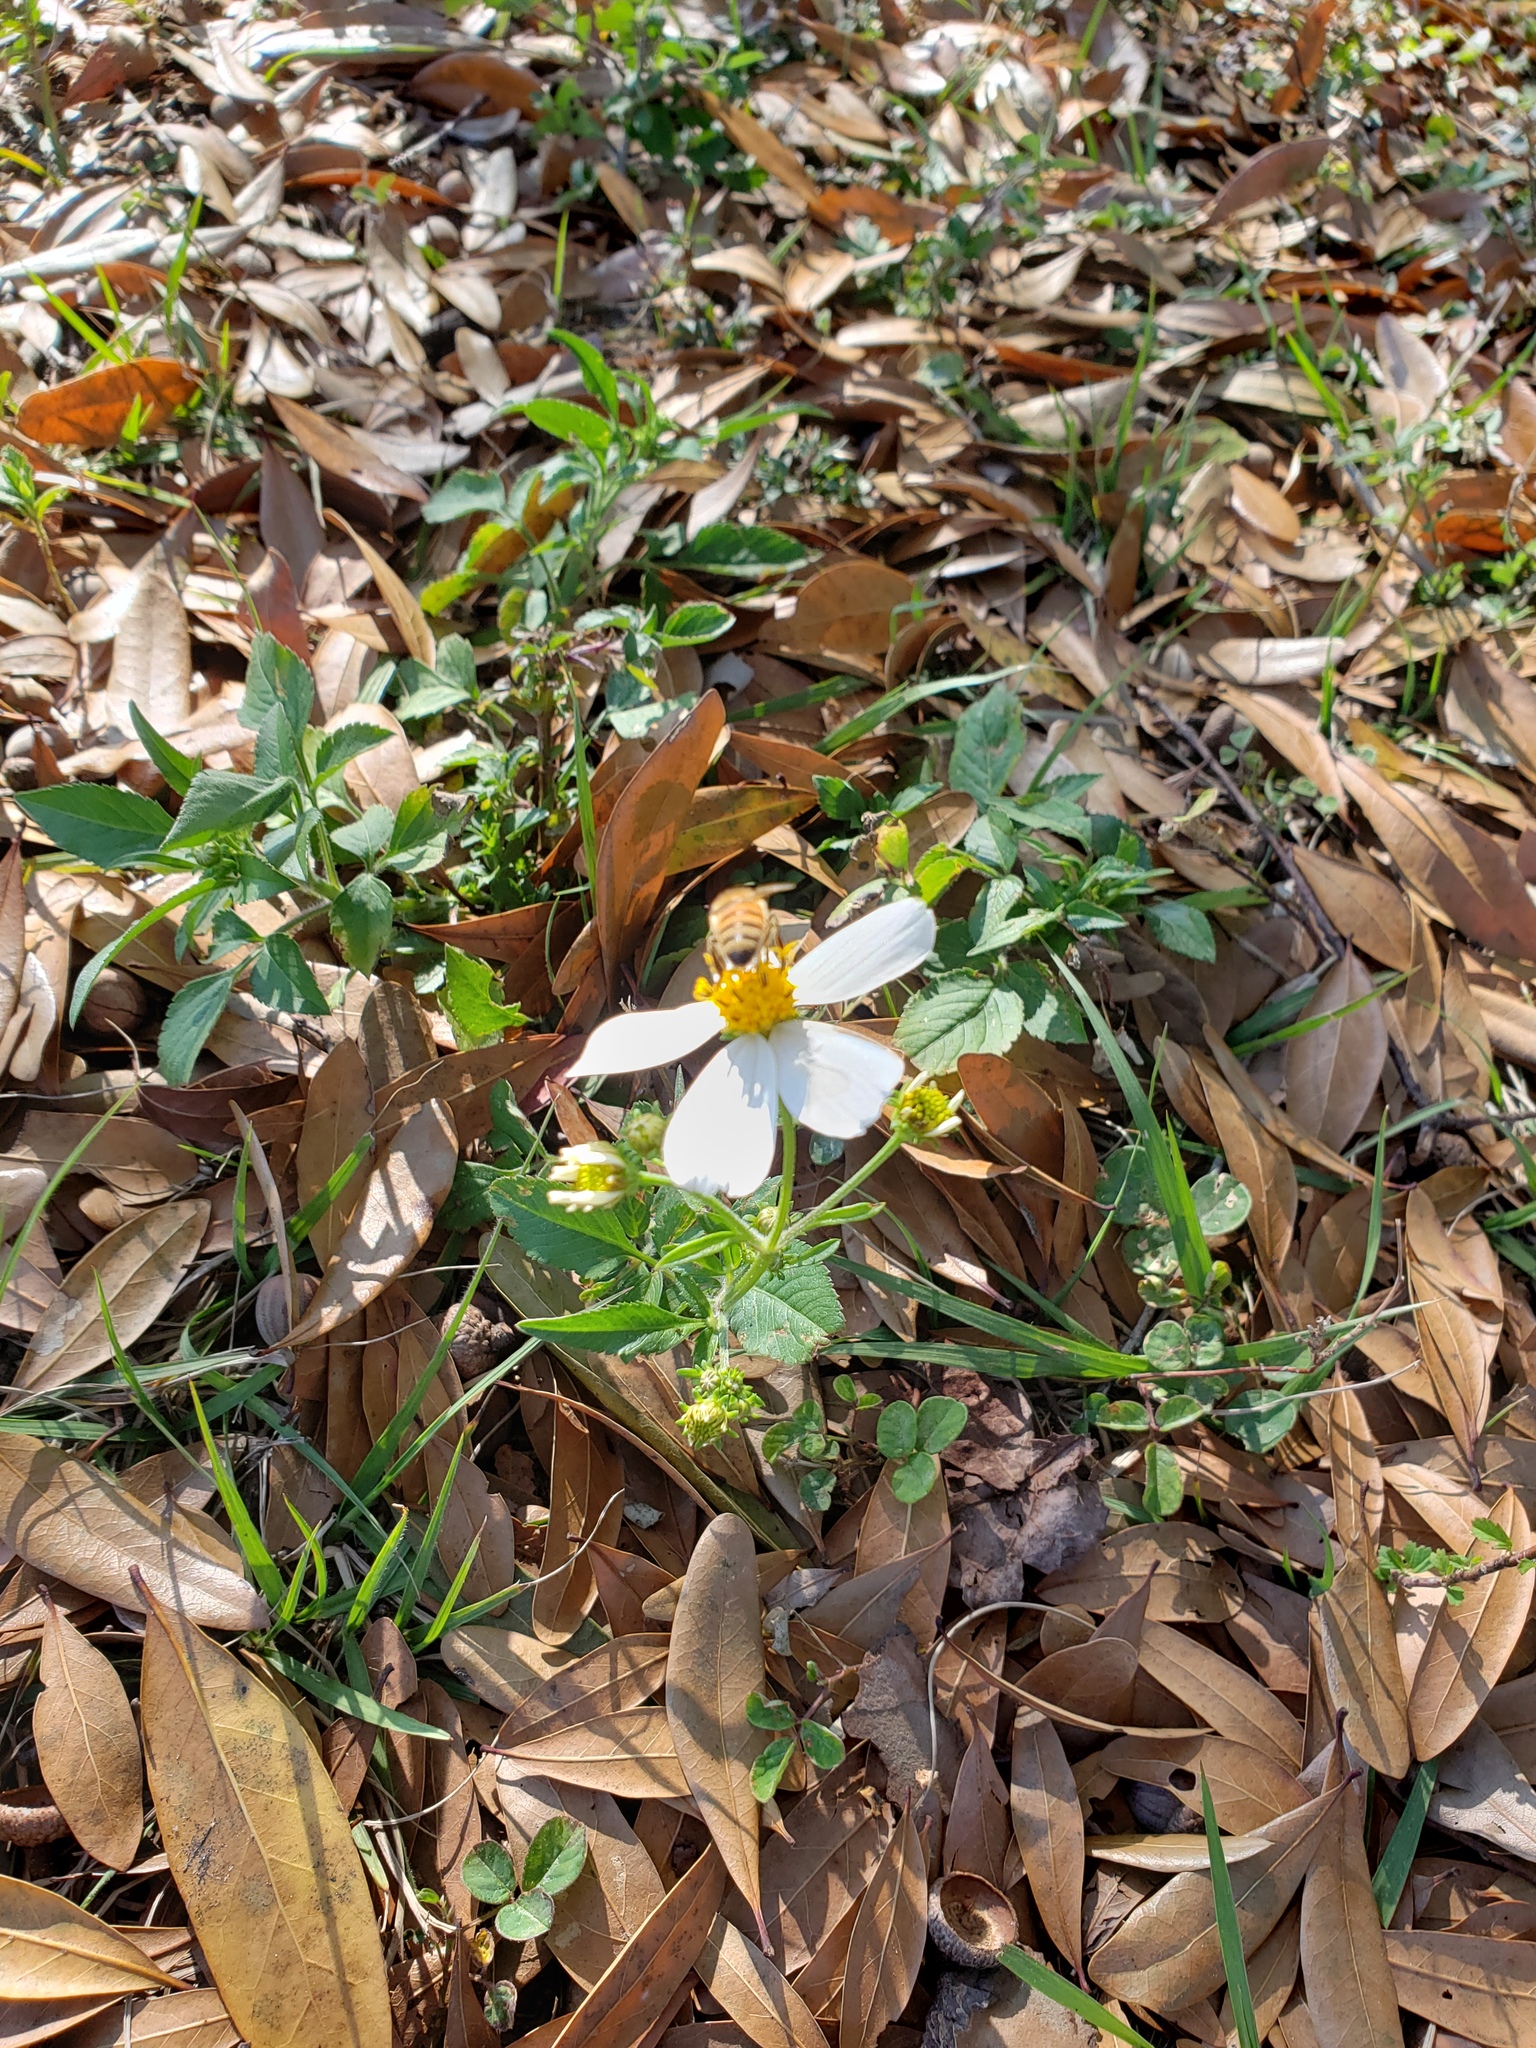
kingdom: Animalia
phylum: Arthropoda
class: Insecta
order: Hymenoptera
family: Apidae
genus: Apis
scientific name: Apis mellifera
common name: Honey bee
